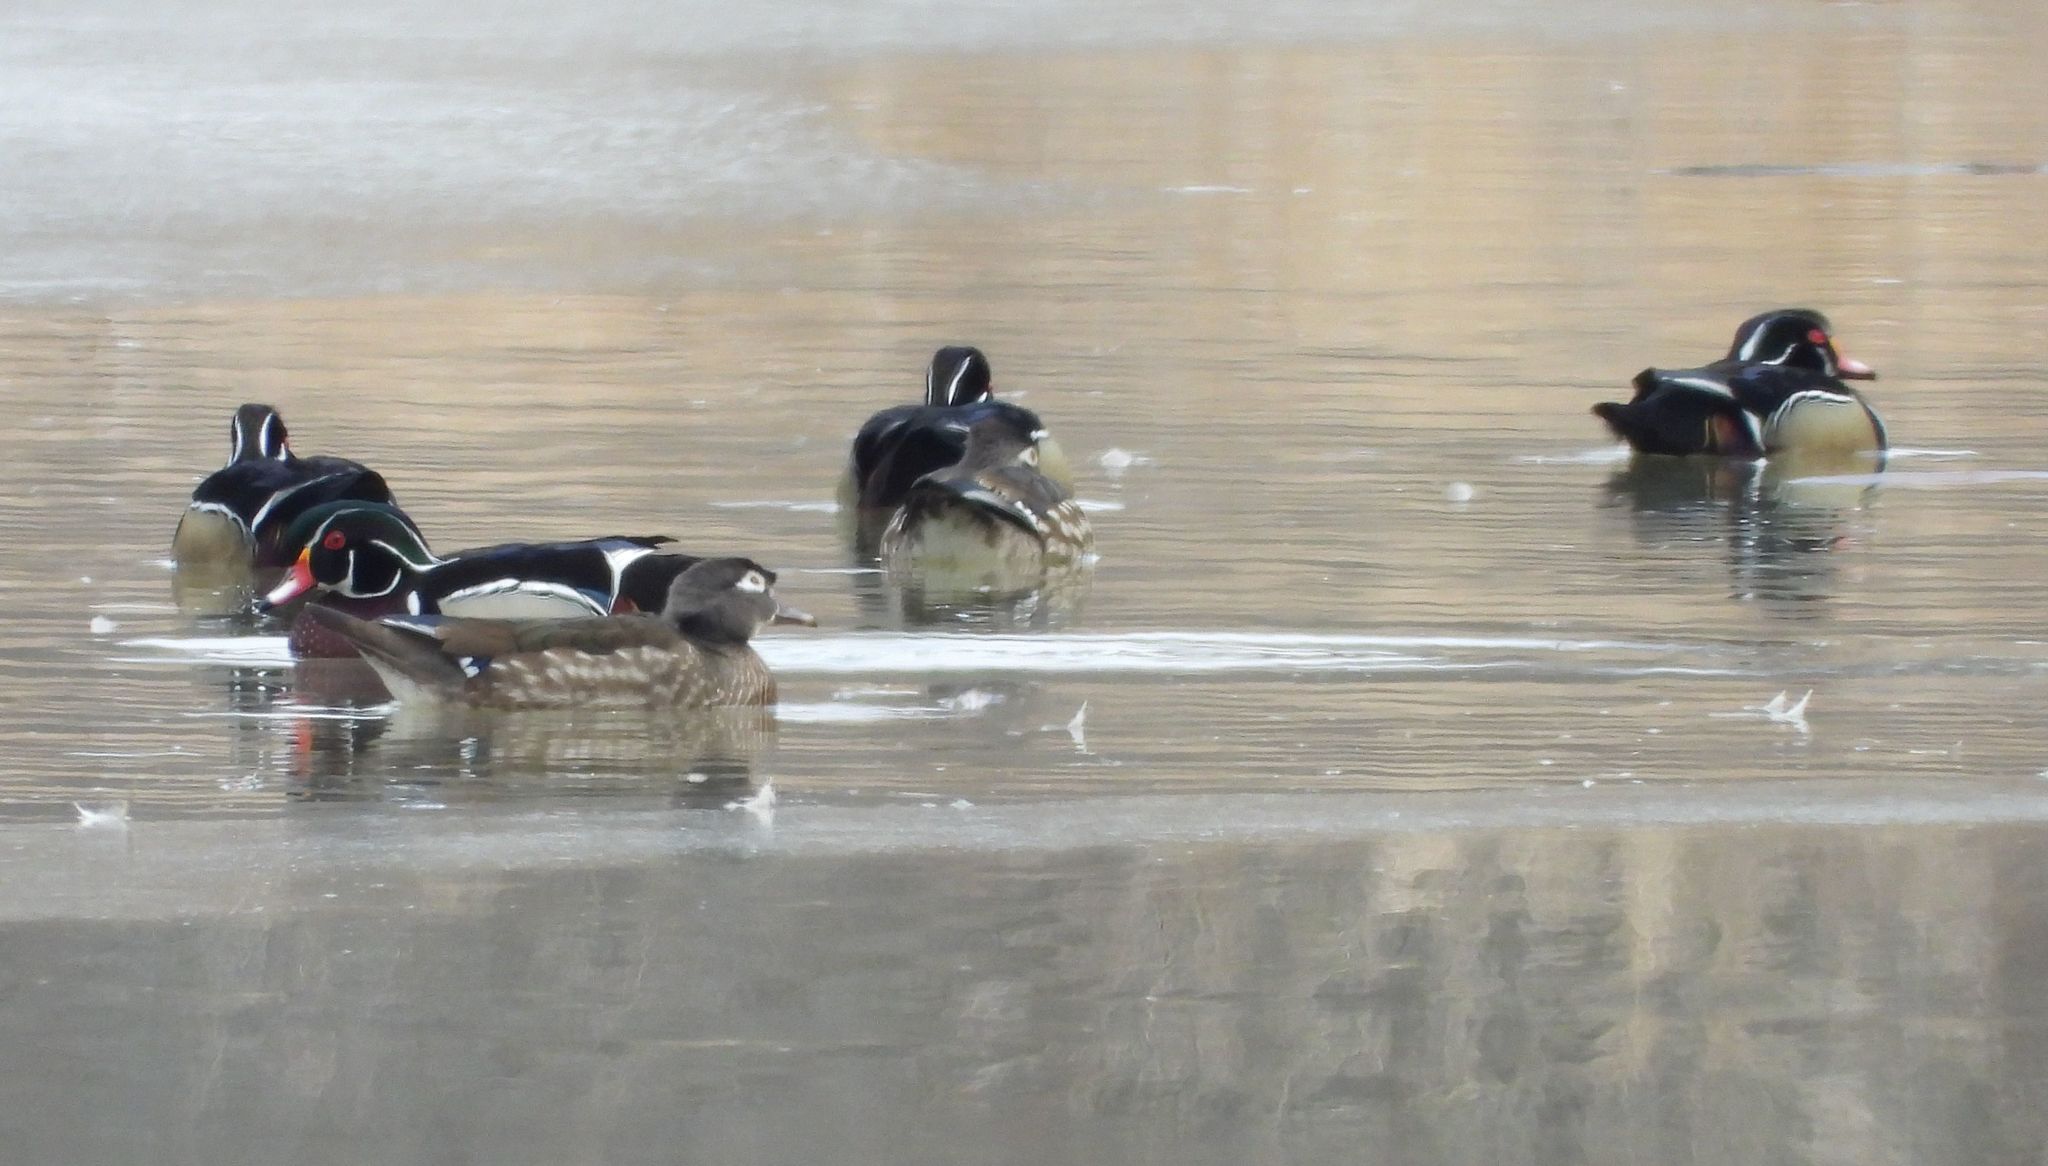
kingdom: Animalia
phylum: Chordata
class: Aves
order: Anseriformes
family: Anatidae
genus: Aix
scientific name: Aix sponsa
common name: Wood duck
